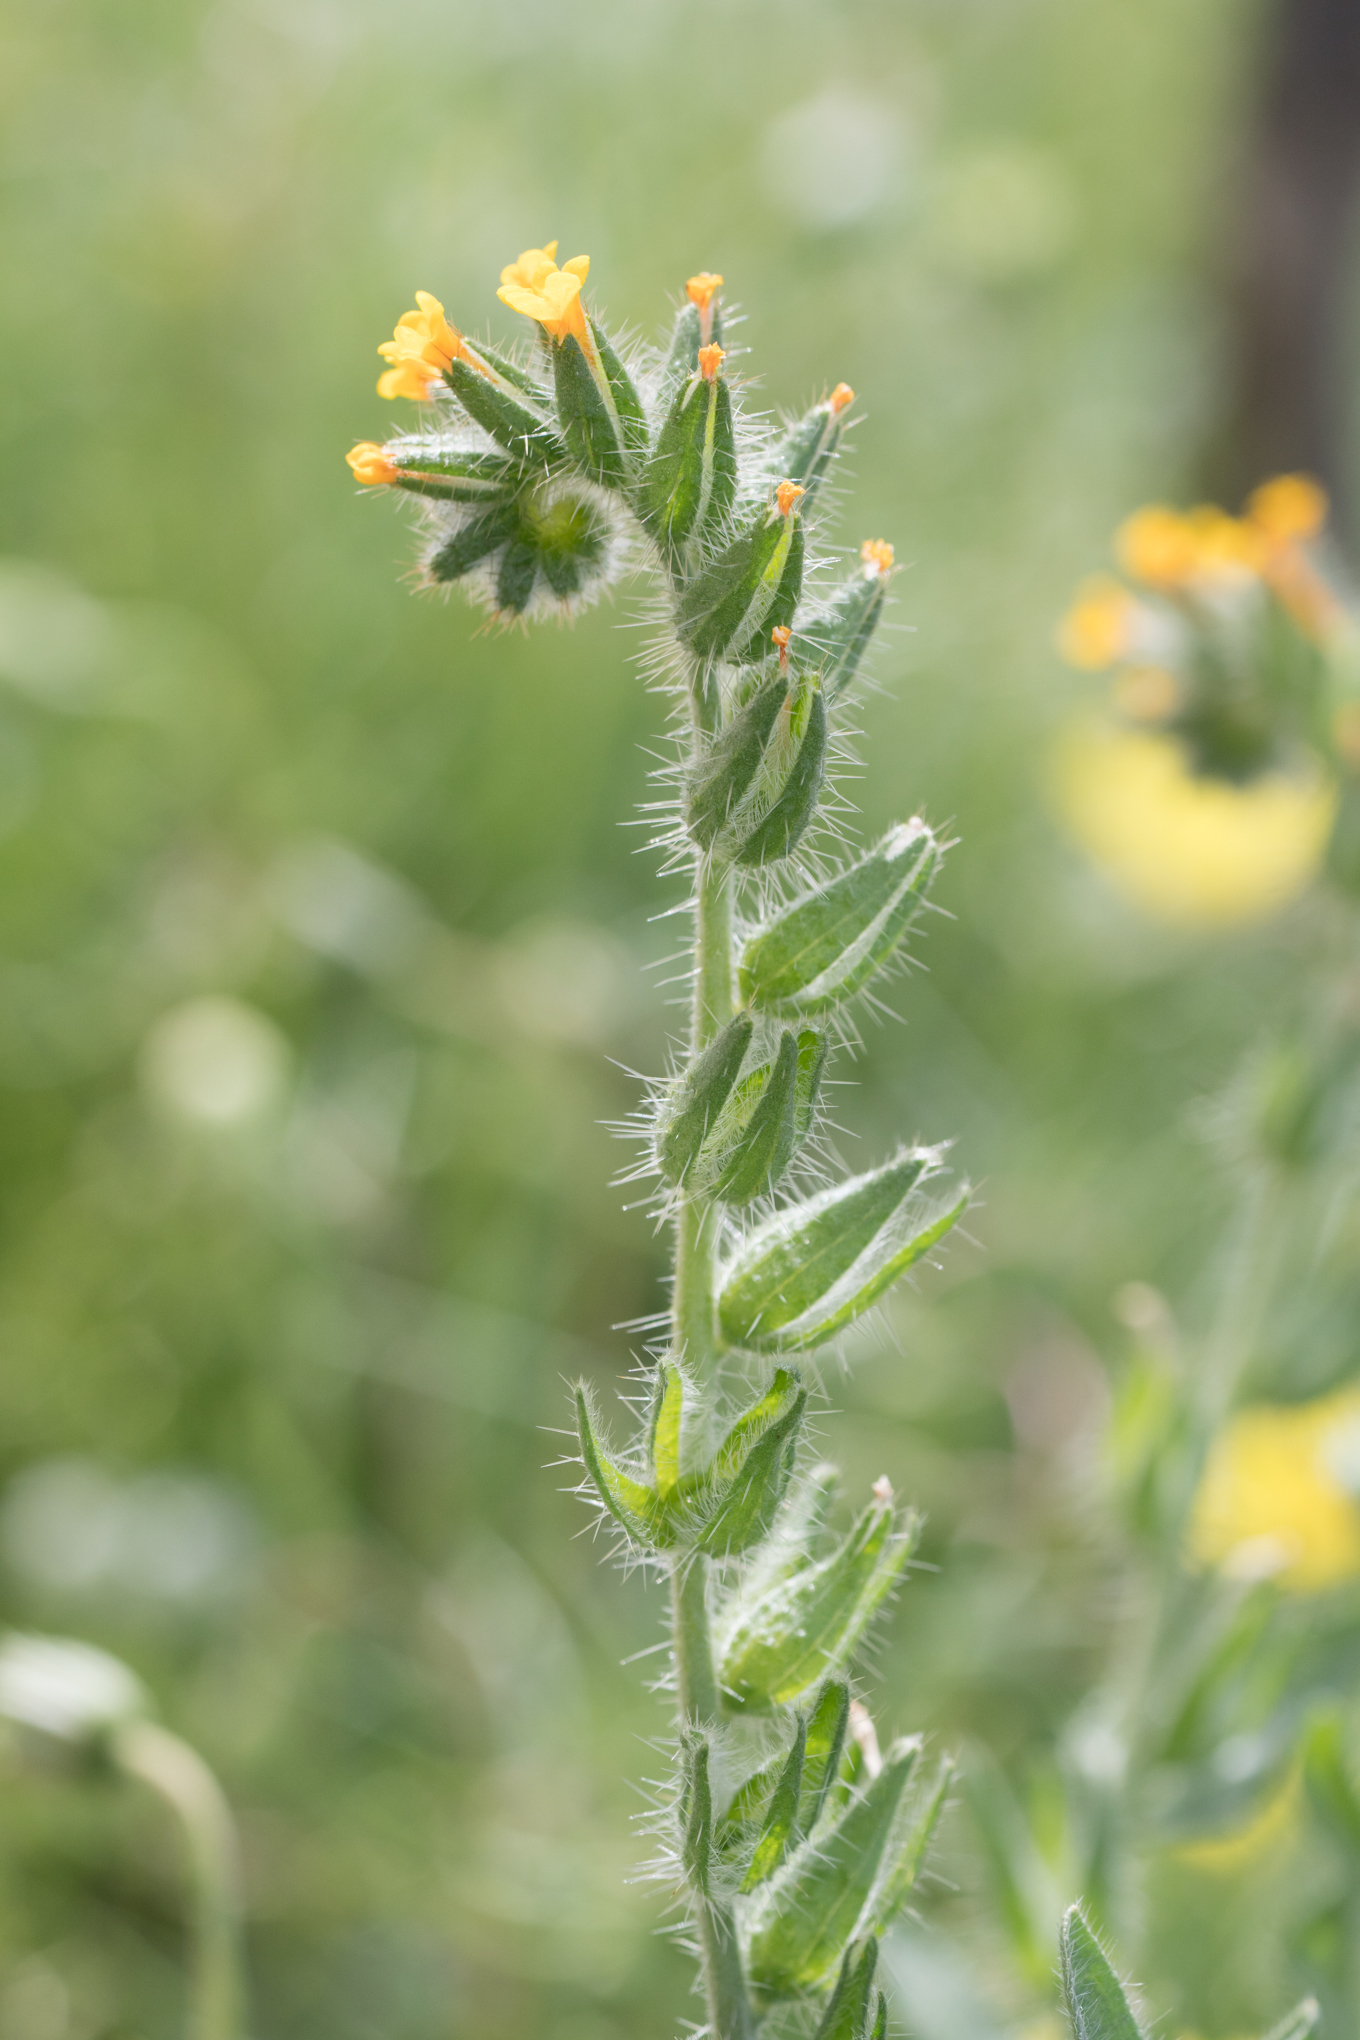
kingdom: Plantae
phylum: Tracheophyta
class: Magnoliopsida
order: Boraginales
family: Boraginaceae
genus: Amsinckia
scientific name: Amsinckia tessellata
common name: Tessellate fiddleneck
